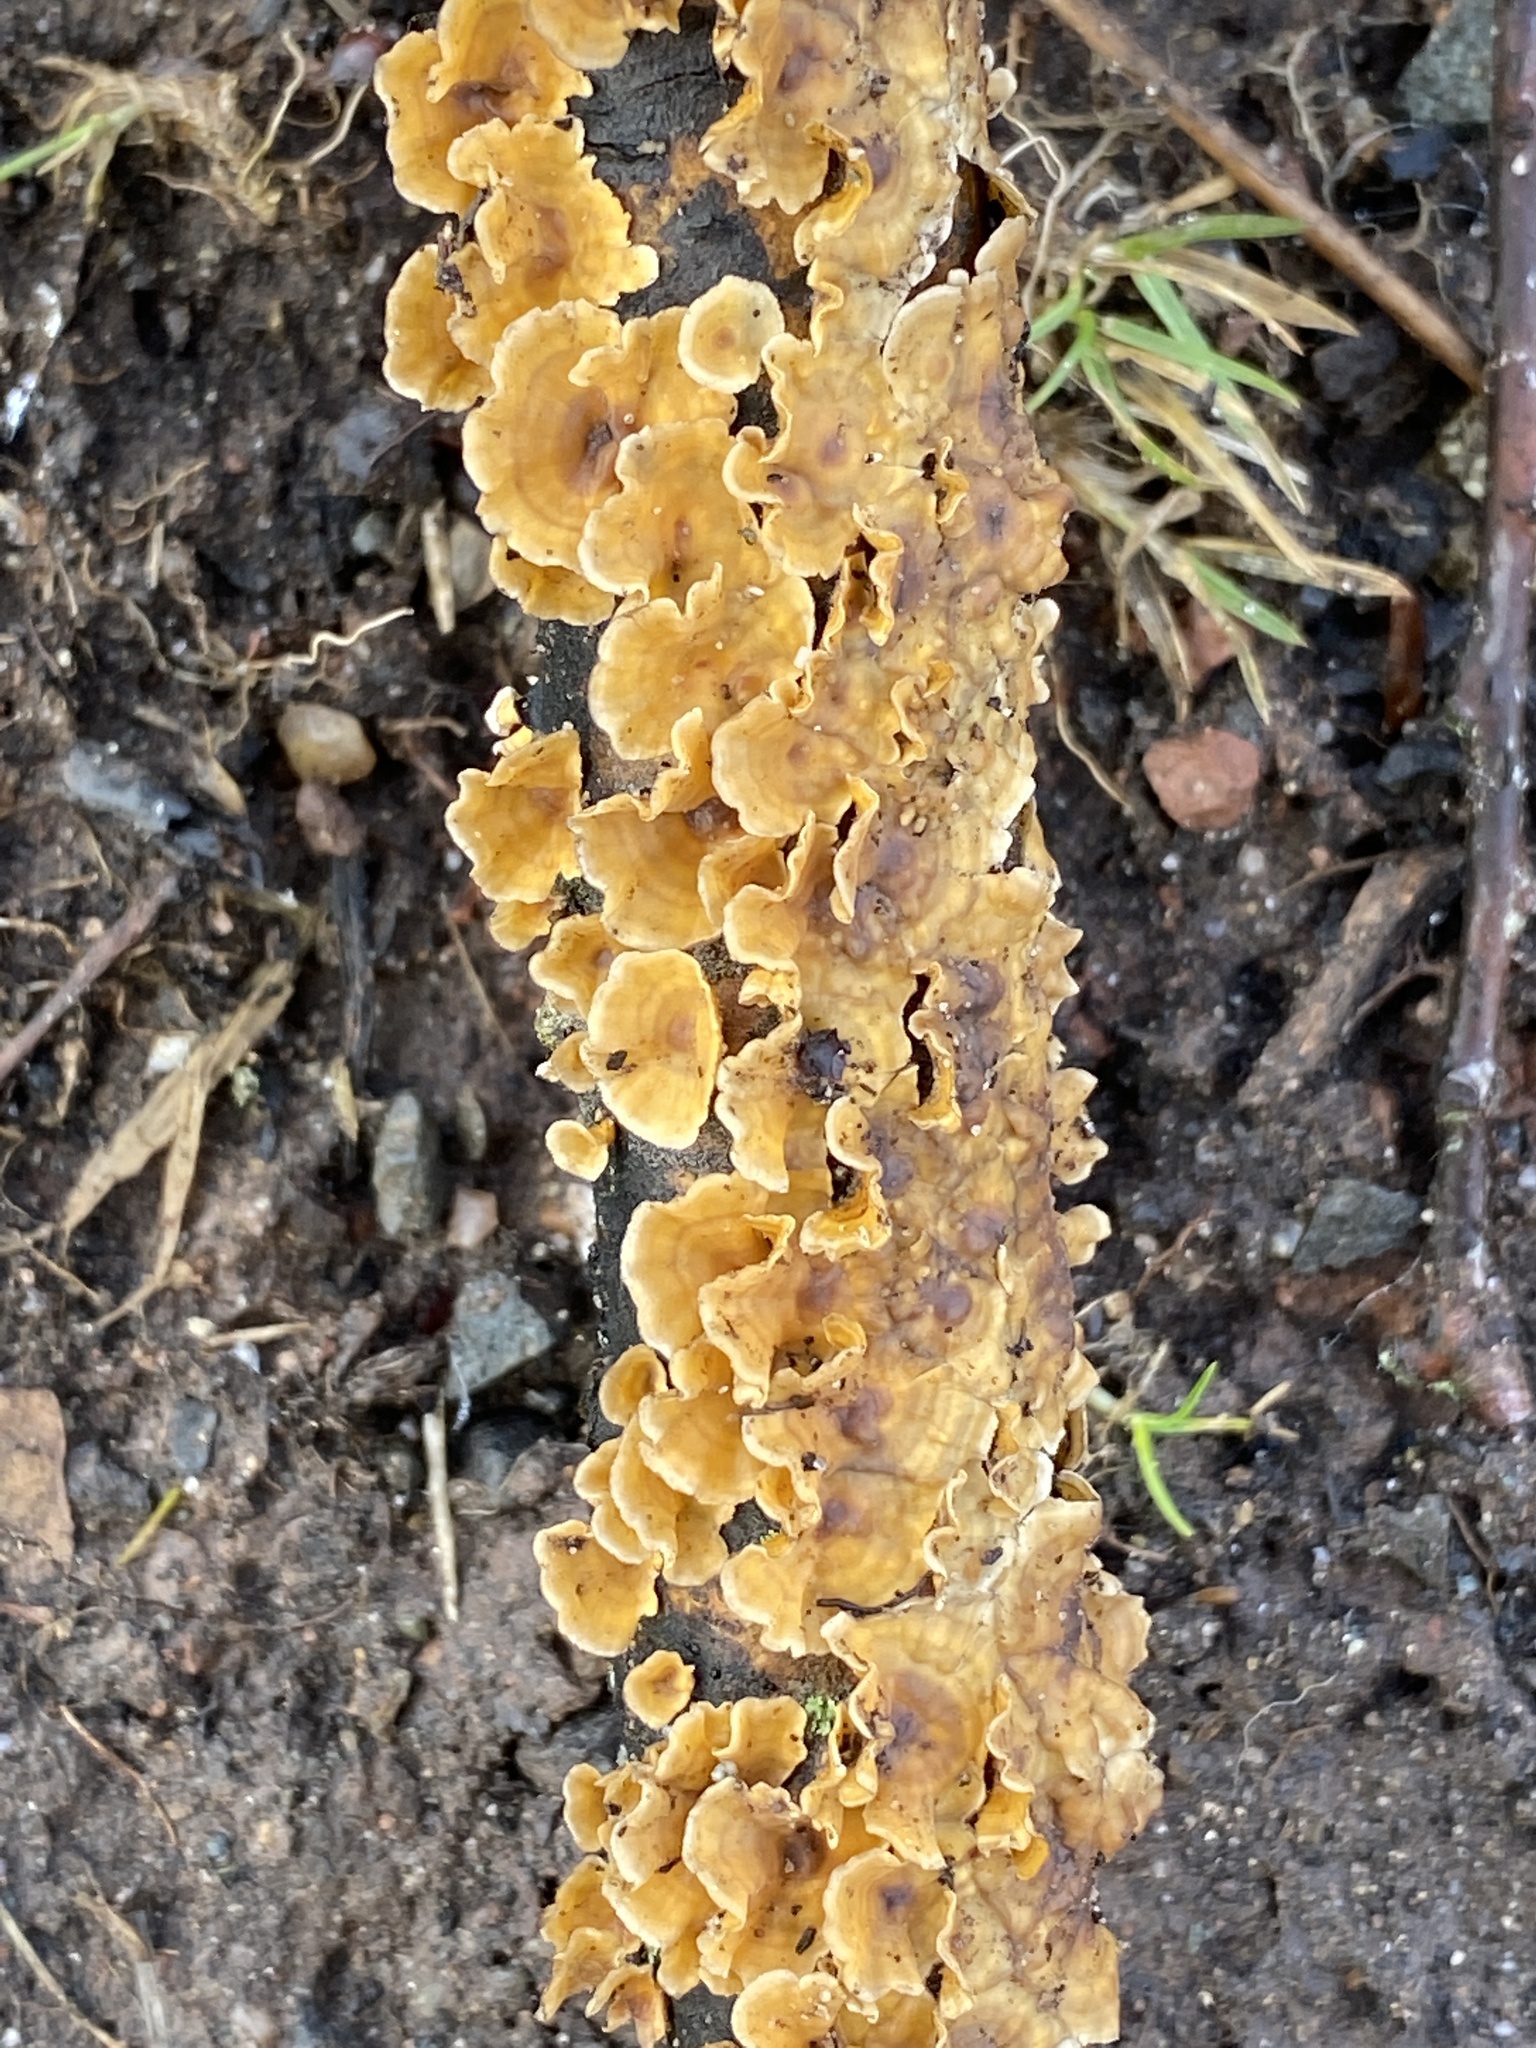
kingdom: Fungi
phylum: Basidiomycota
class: Agaricomycetes
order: Russulales
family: Stereaceae
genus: Stereum
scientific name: Stereum complicatum
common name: Crowded parchment
